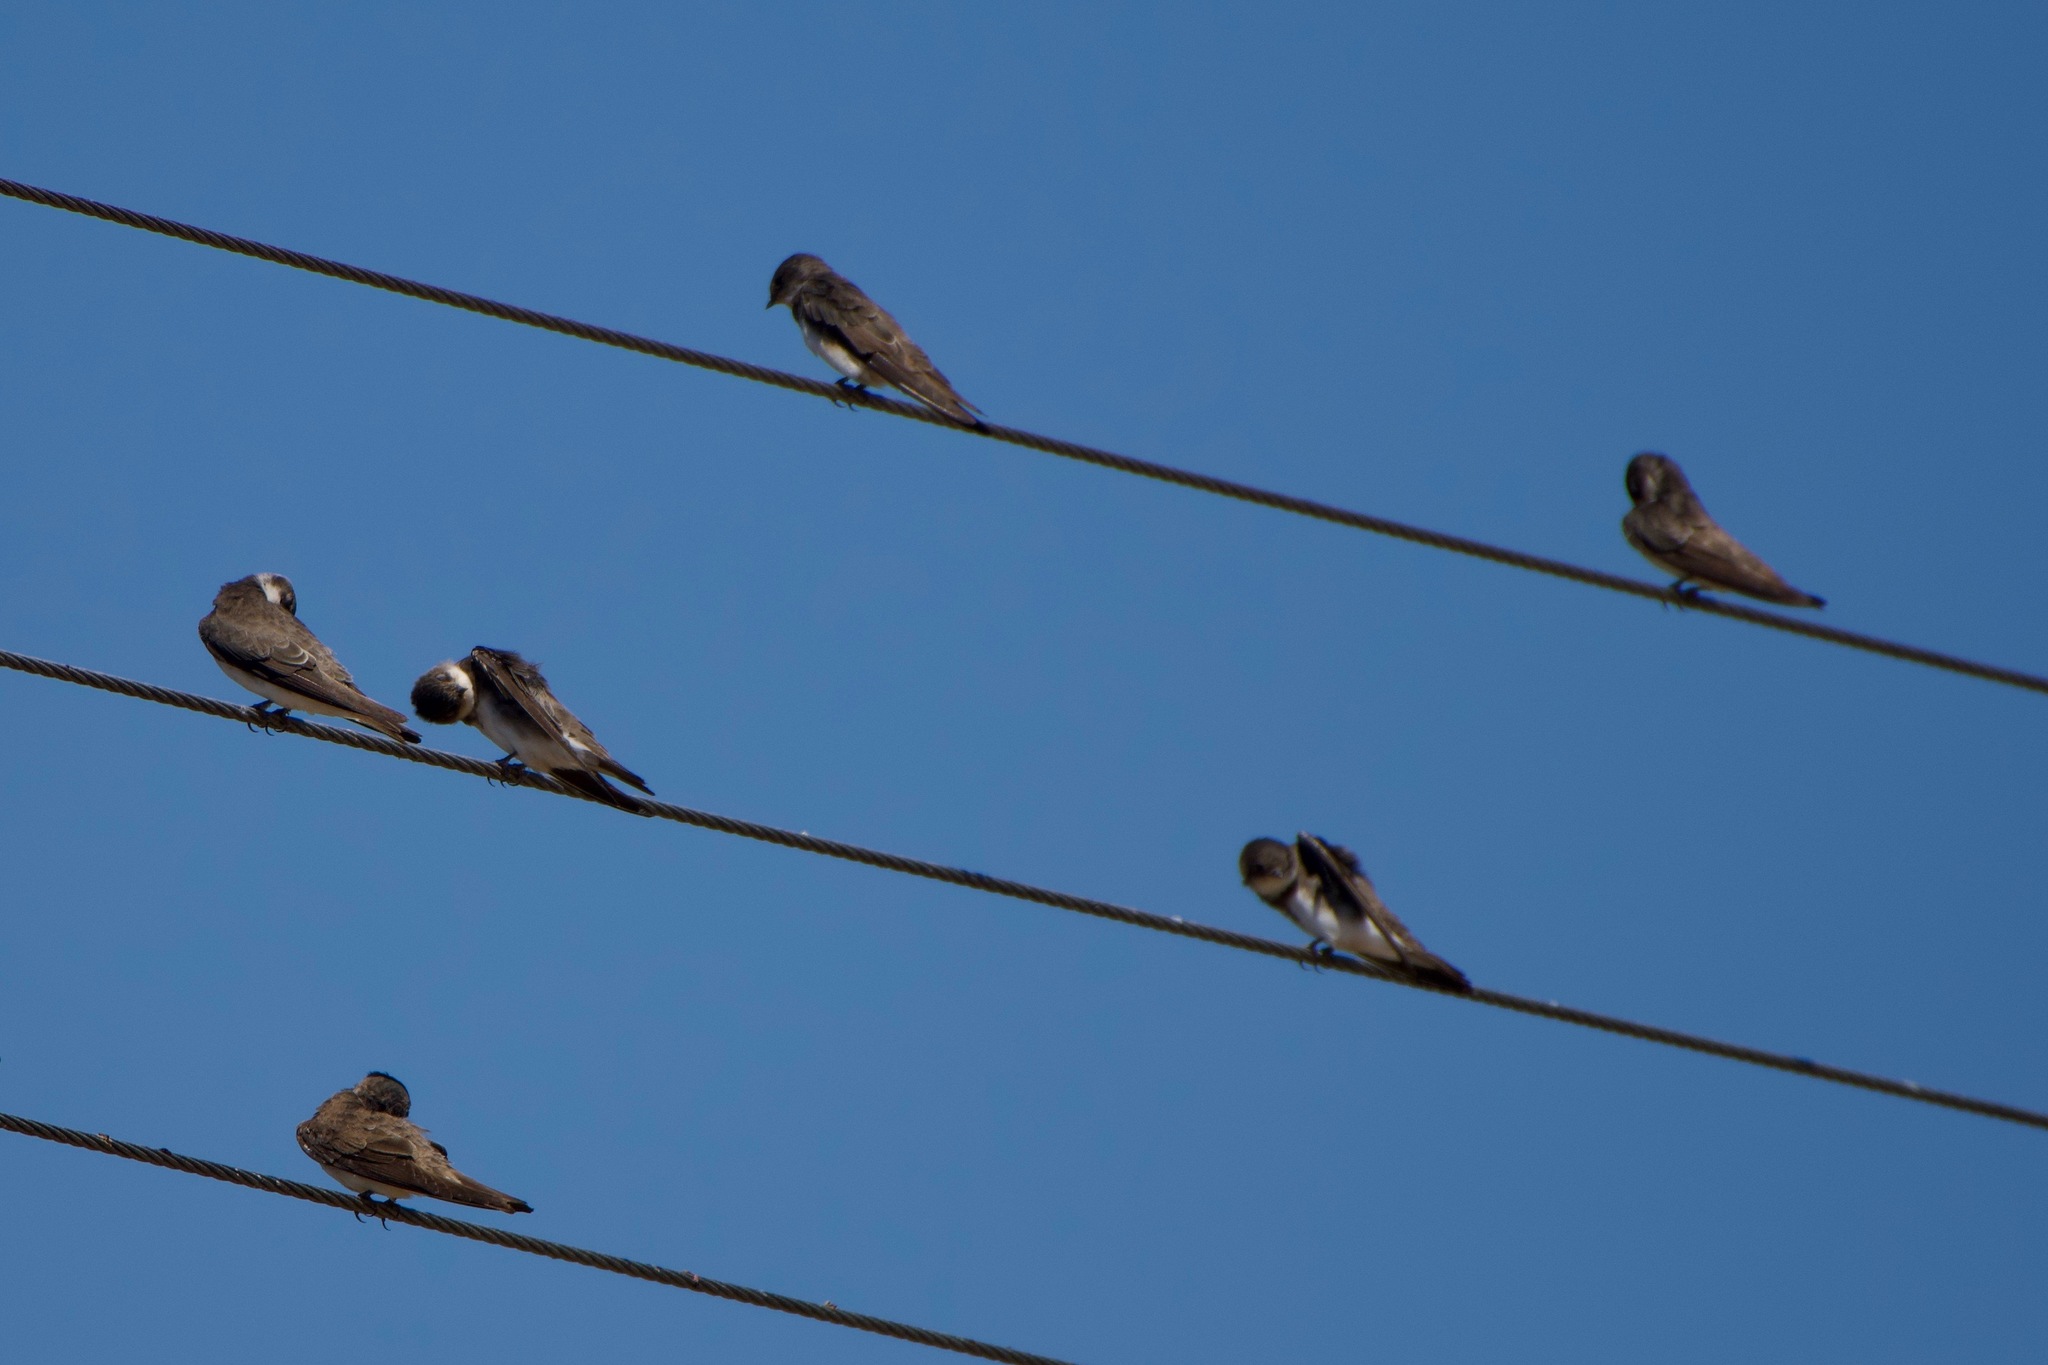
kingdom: Animalia
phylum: Chordata
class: Aves
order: Passeriformes
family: Hirundinidae
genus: Riparia
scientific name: Riparia riparia
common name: Sand martin
